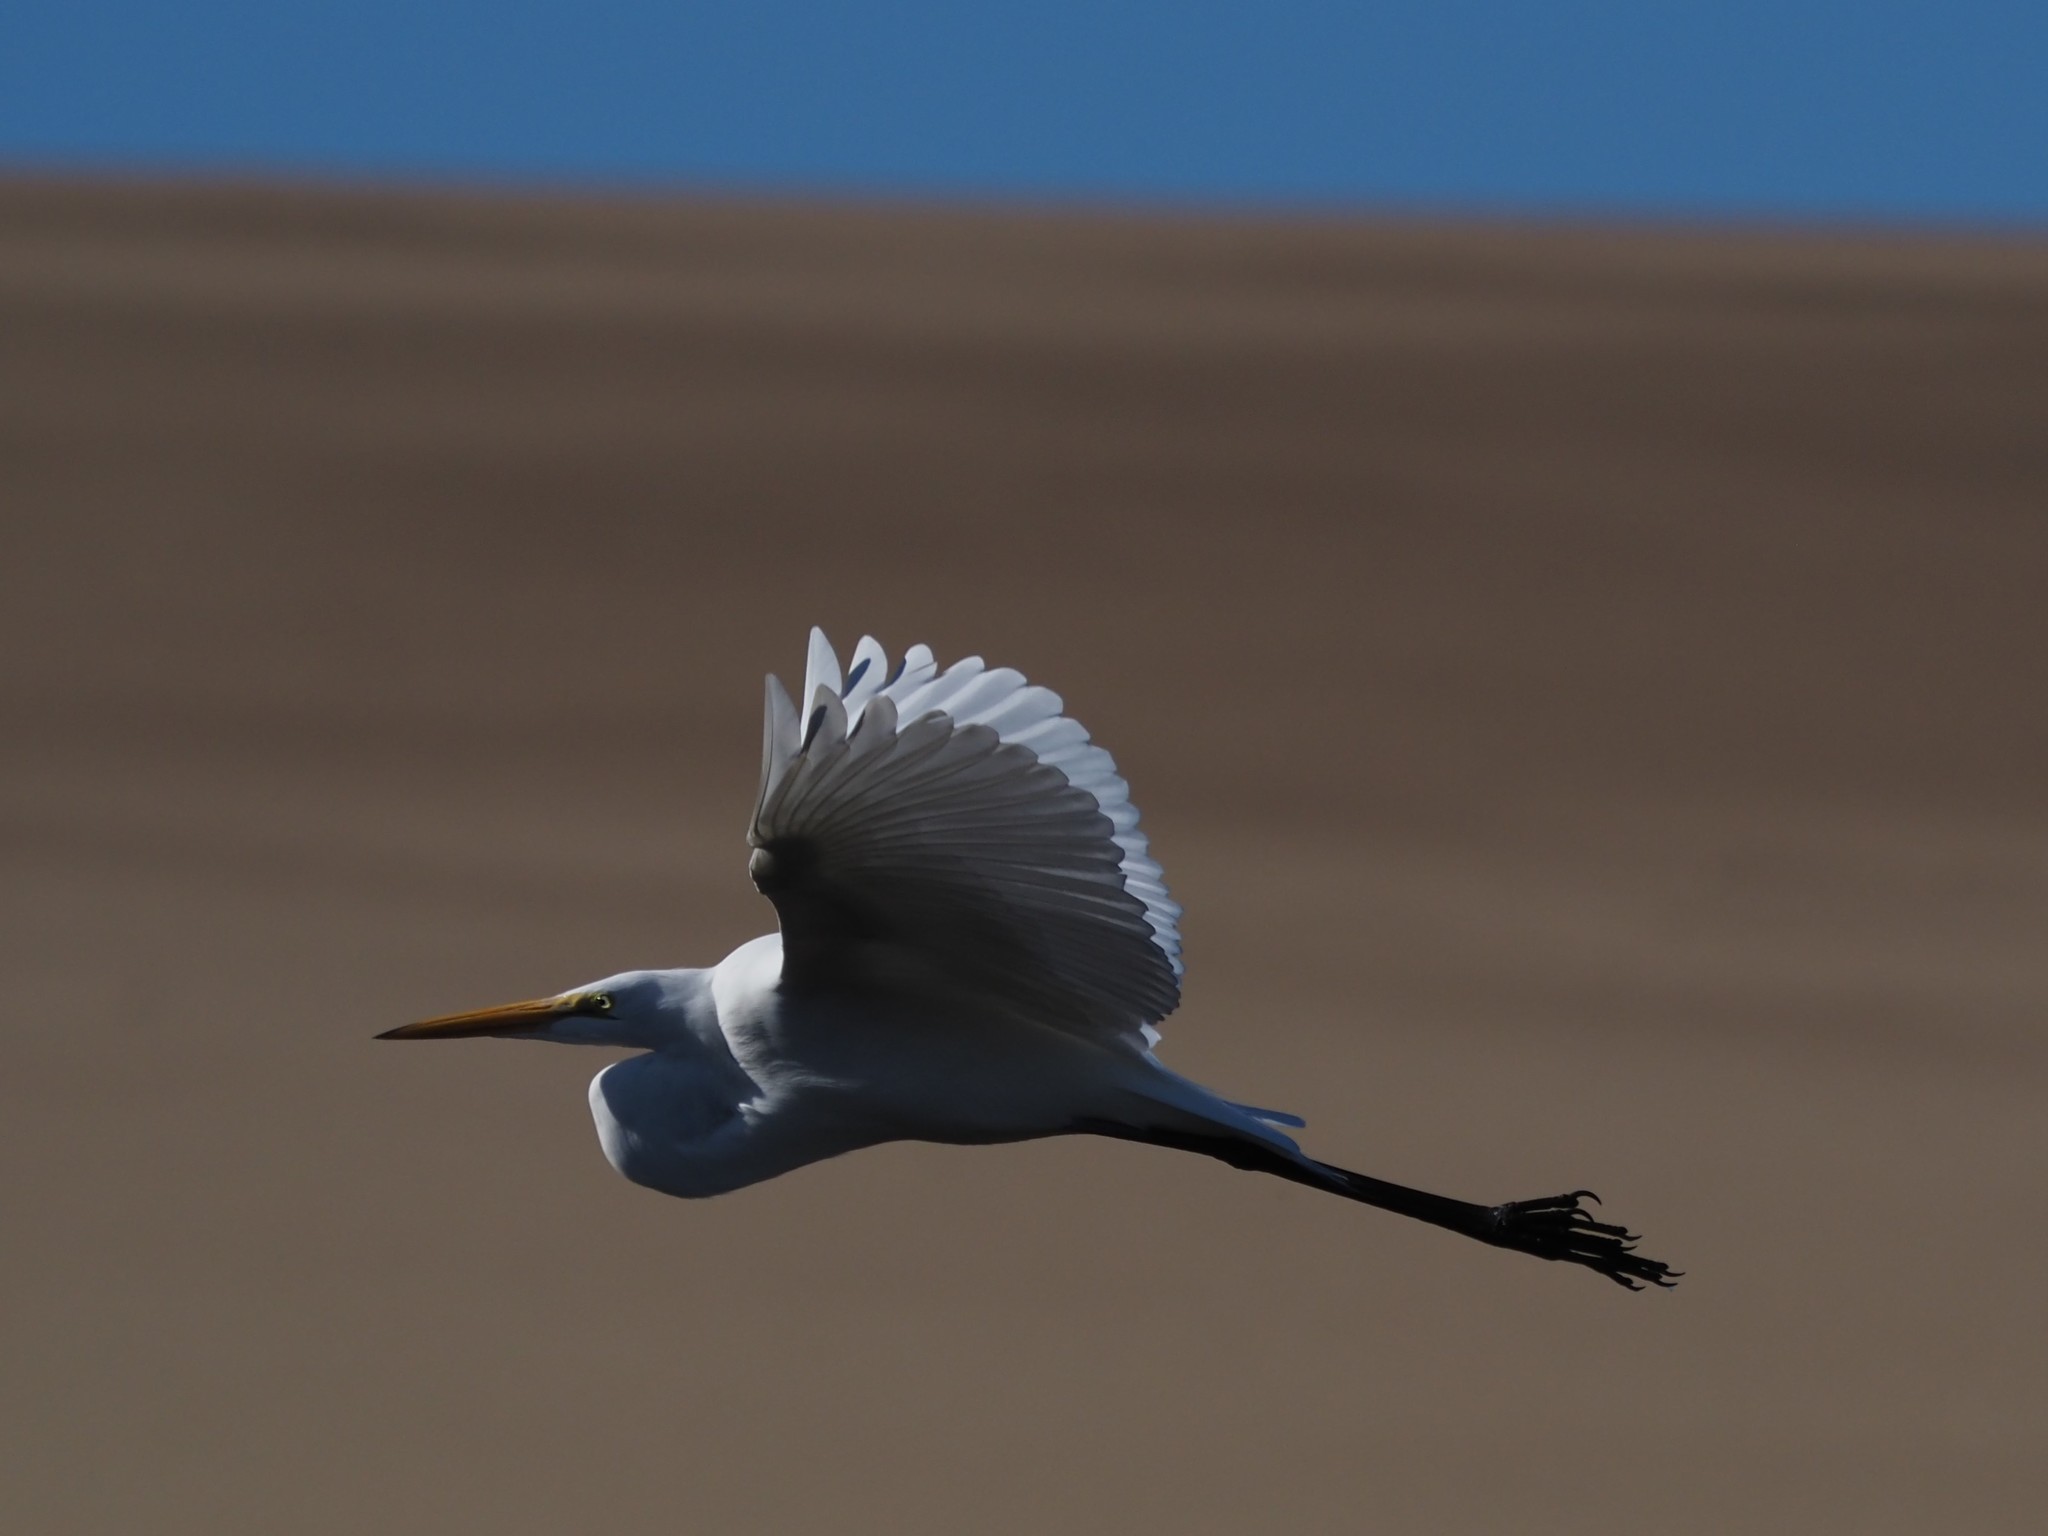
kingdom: Animalia
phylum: Chordata
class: Aves
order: Pelecaniformes
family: Ardeidae
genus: Ardea
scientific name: Ardea alba
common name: Great egret
